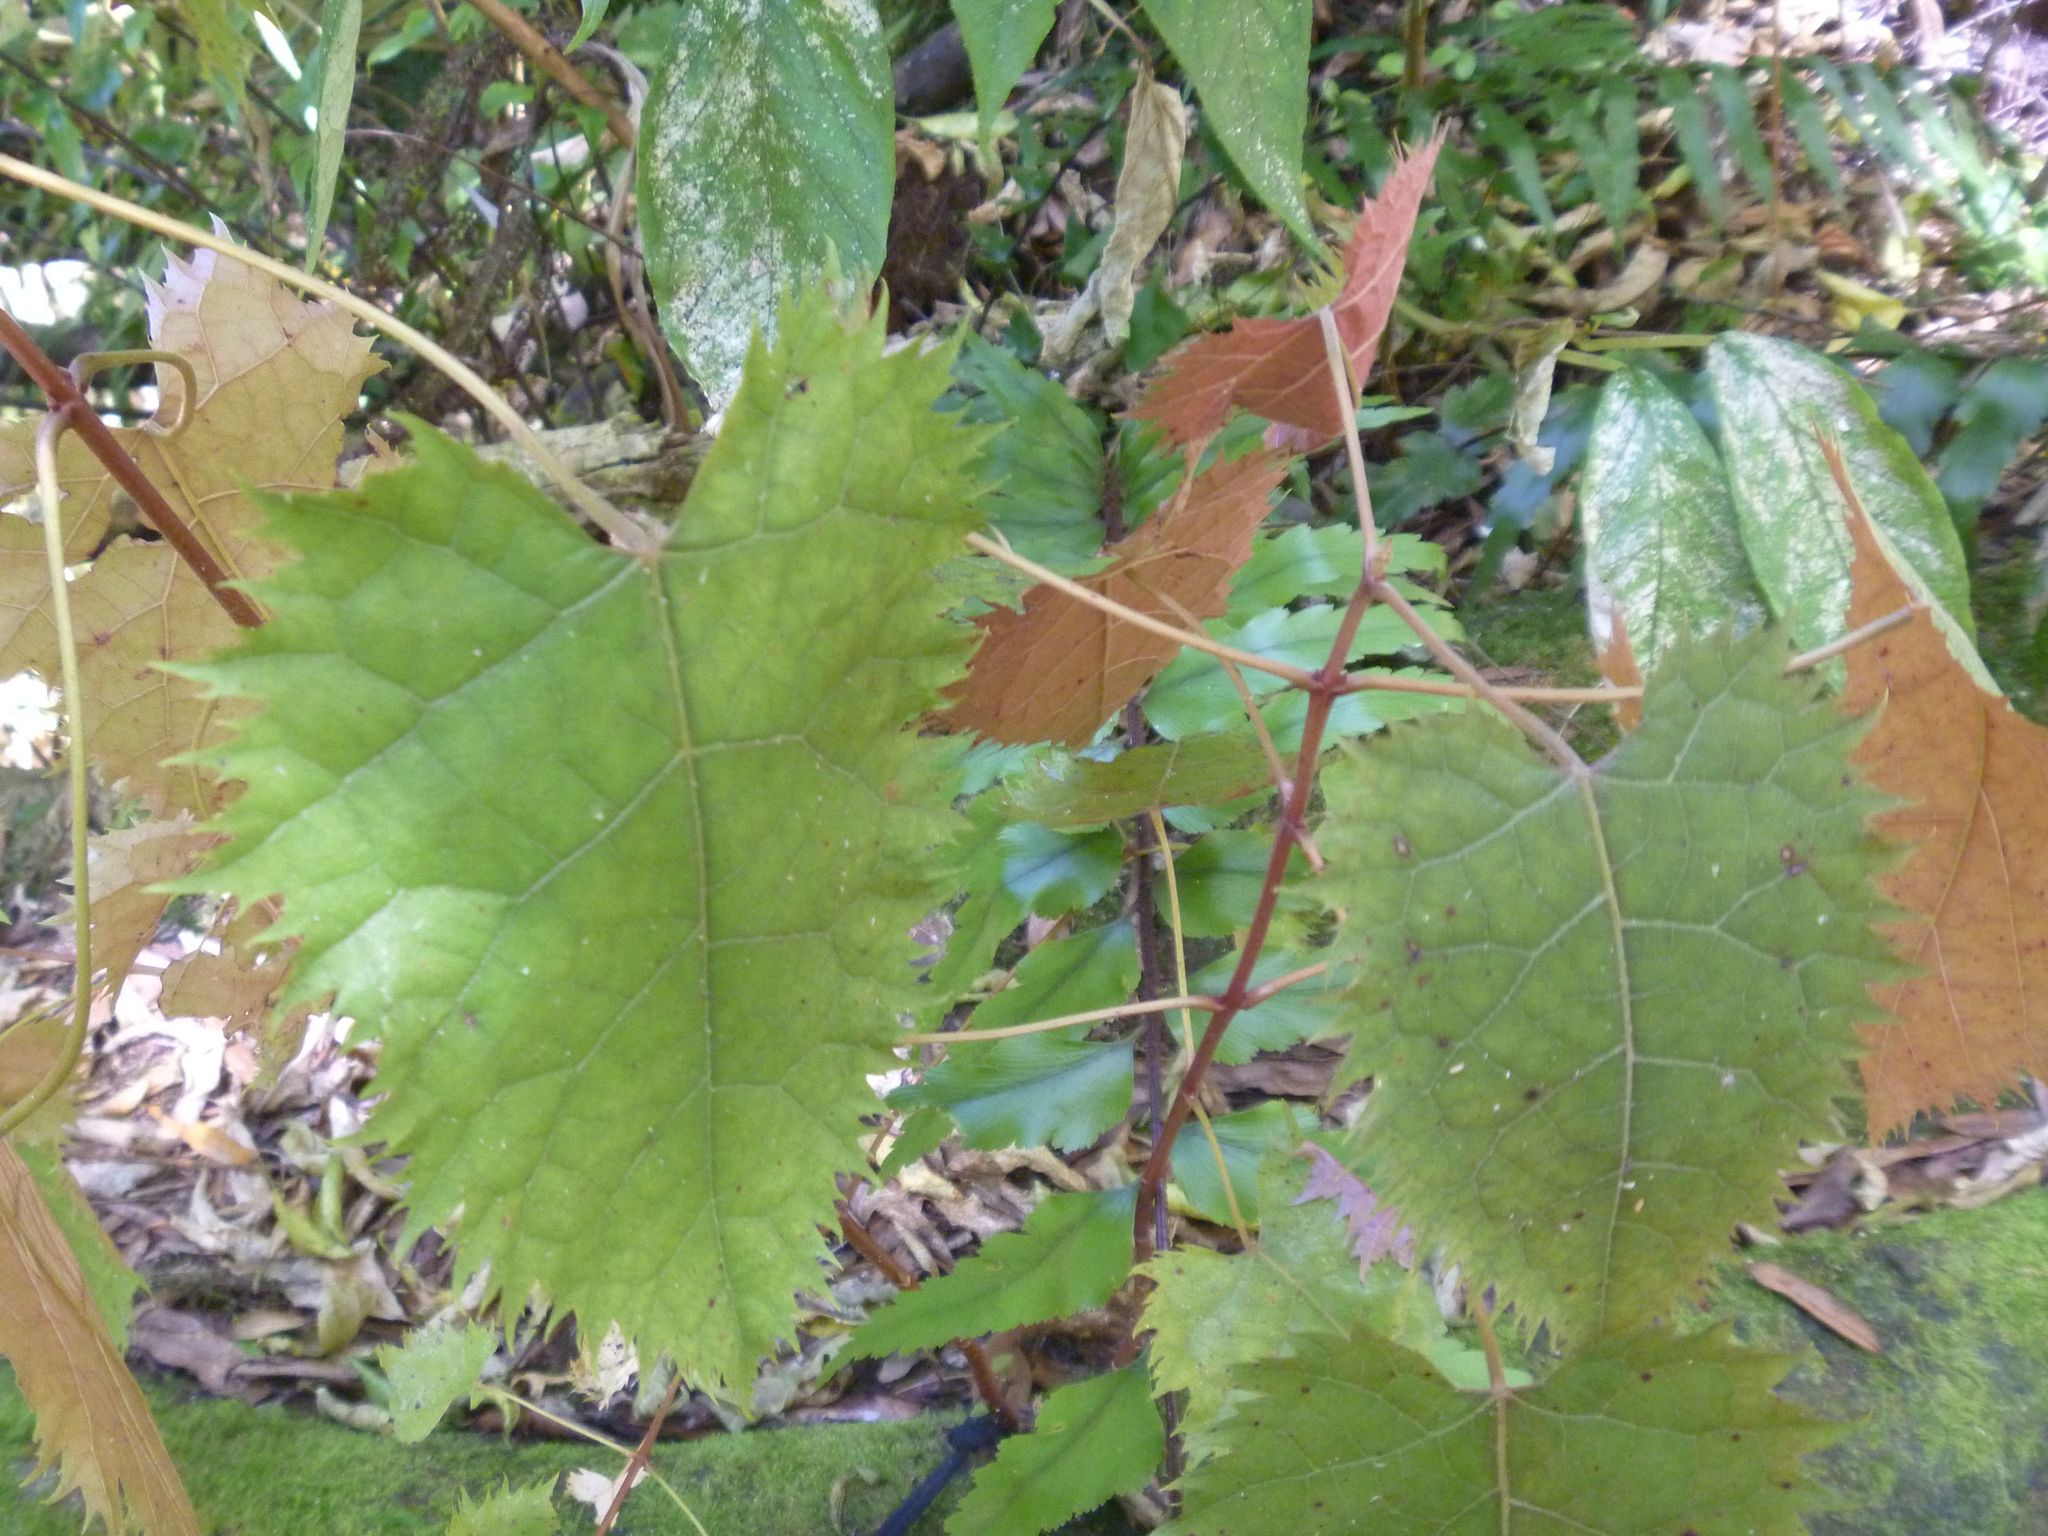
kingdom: Plantae
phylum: Tracheophyta
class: Magnoliopsida
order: Oxalidales
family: Elaeocarpaceae
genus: Aristotelia
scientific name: Aristotelia serrata
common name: New zealand wineberry
